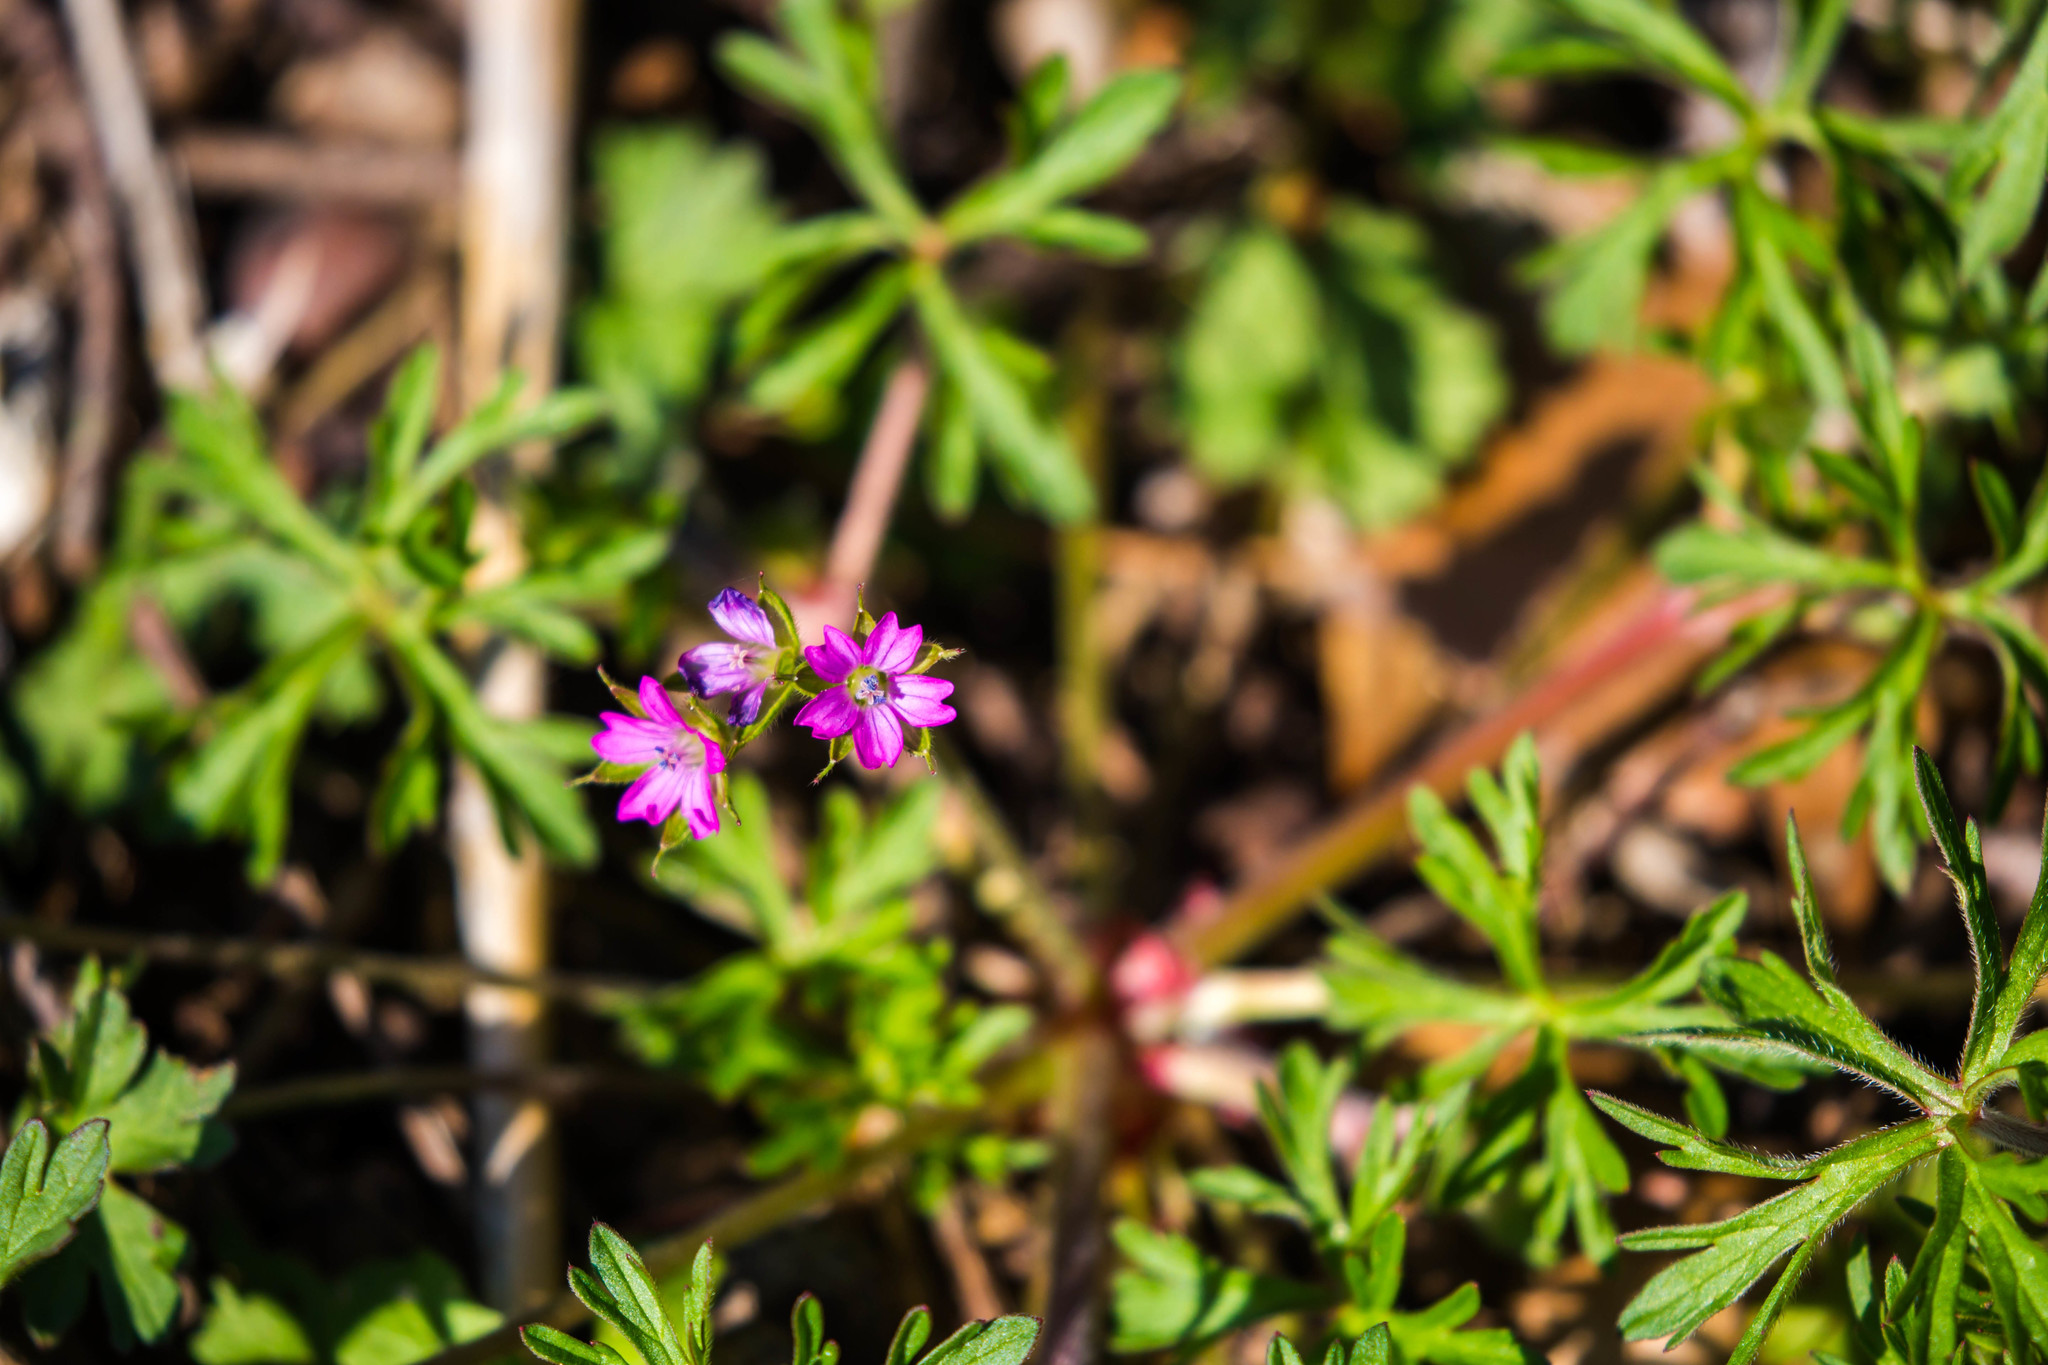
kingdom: Plantae
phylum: Tracheophyta
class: Magnoliopsida
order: Geraniales
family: Geraniaceae
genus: Geranium
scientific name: Geranium dissectum
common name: Cut-leaved crane's-bill
